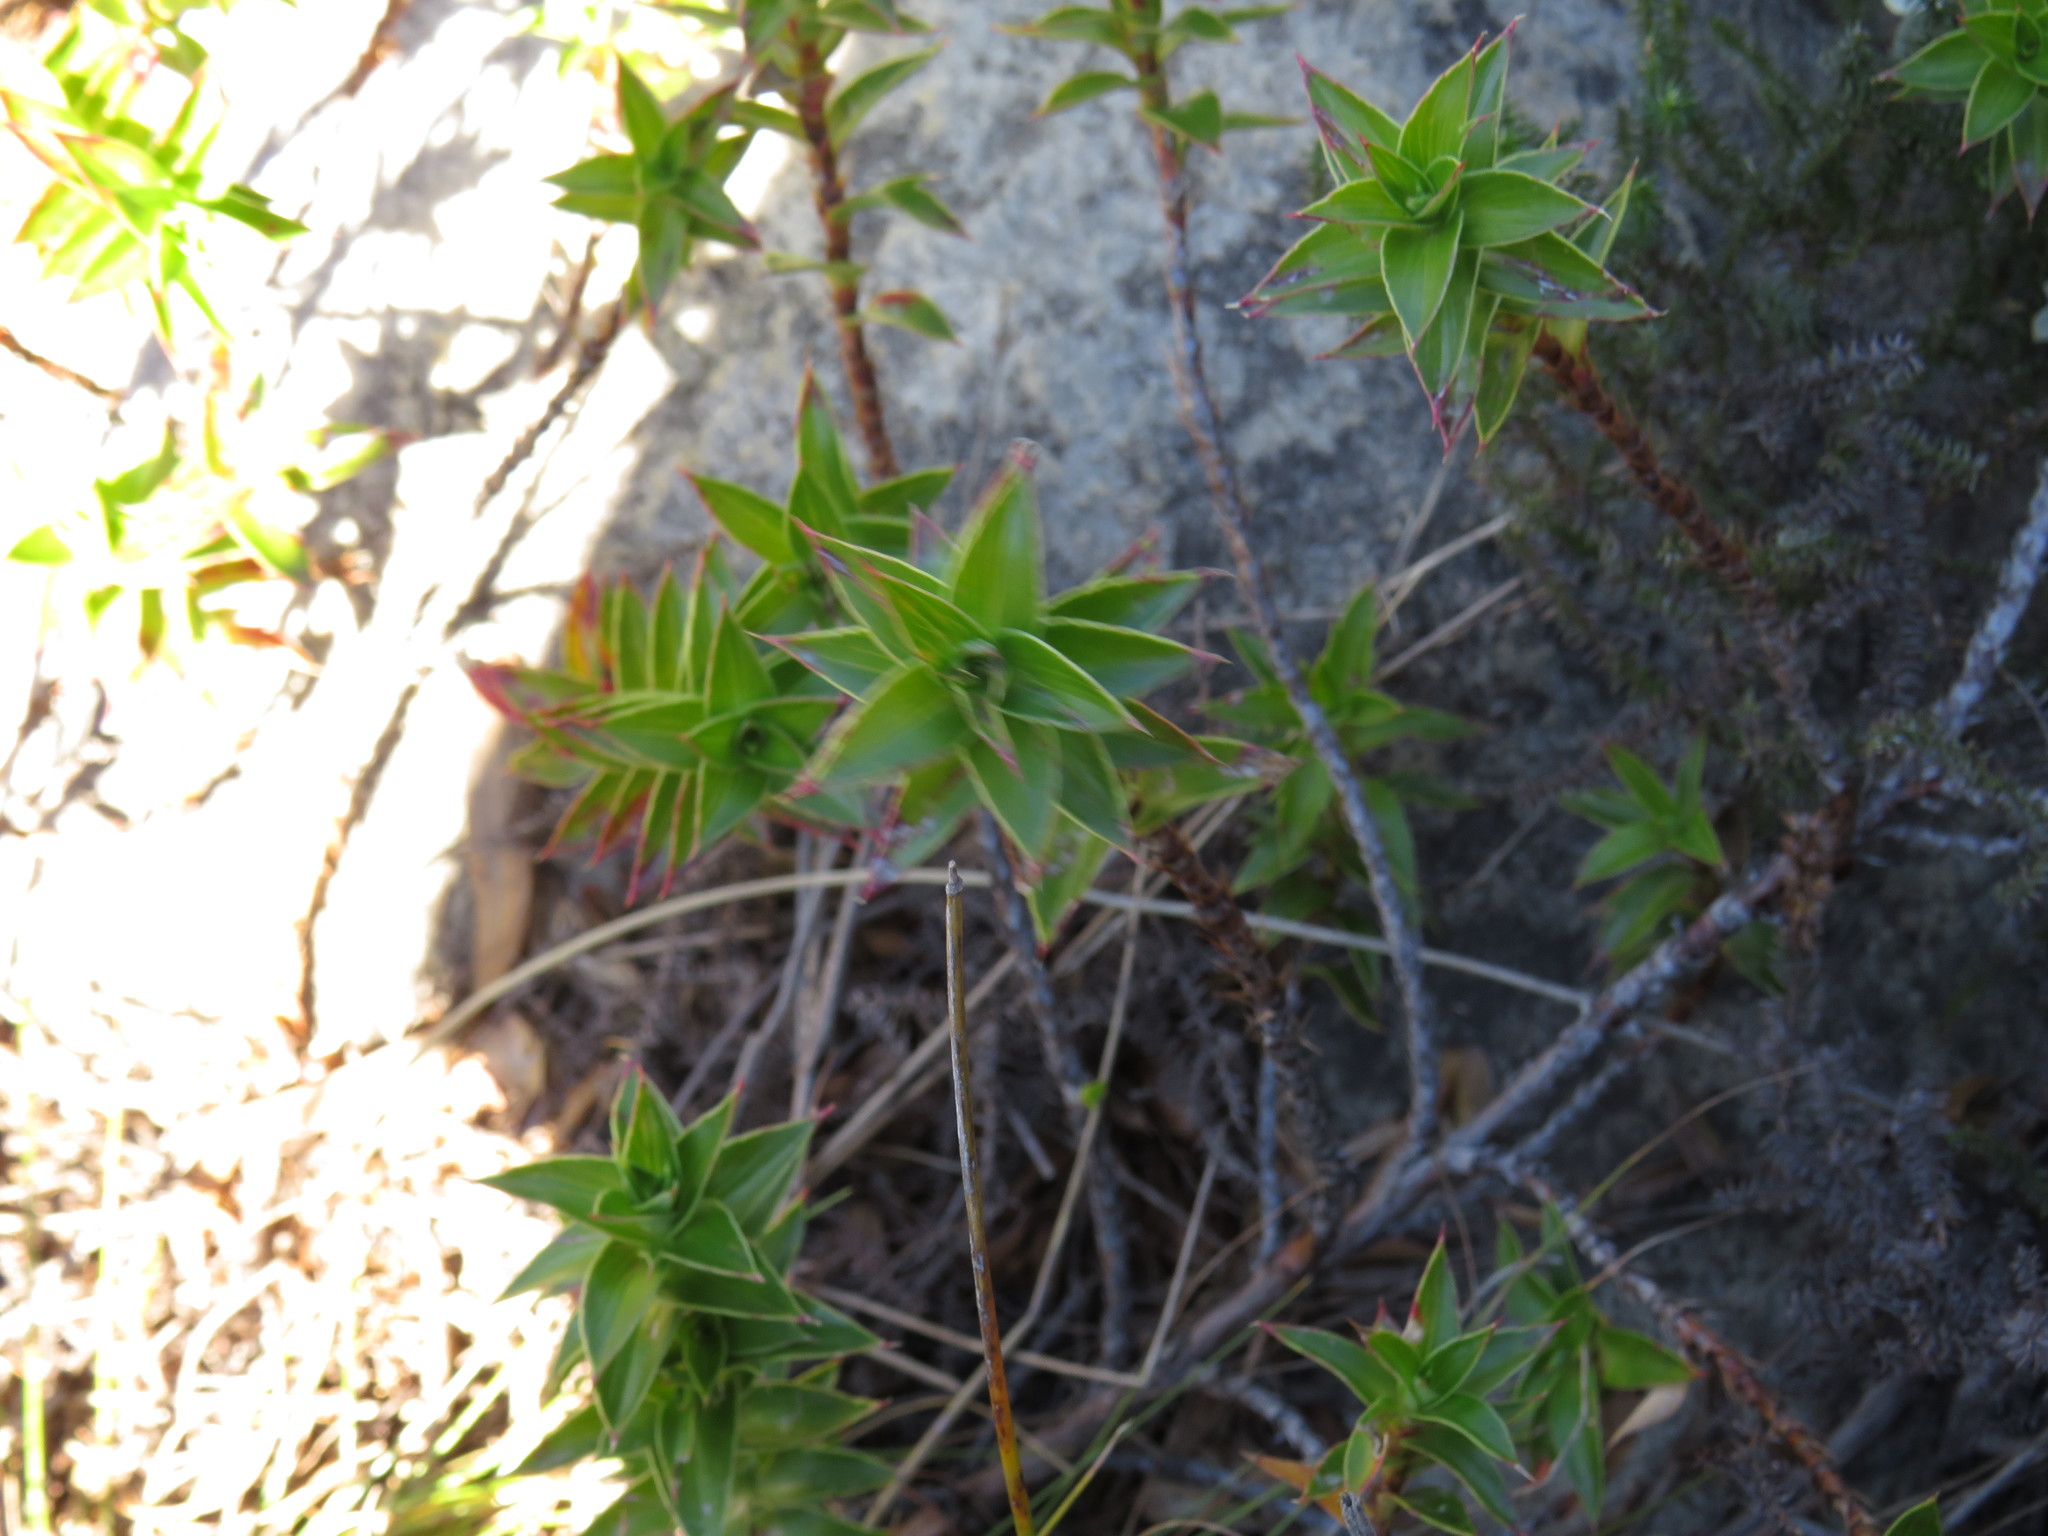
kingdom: Plantae
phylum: Tracheophyta
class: Magnoliopsida
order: Rosales
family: Rosaceae
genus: Cliffortia
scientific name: Cliffortia integerrima
